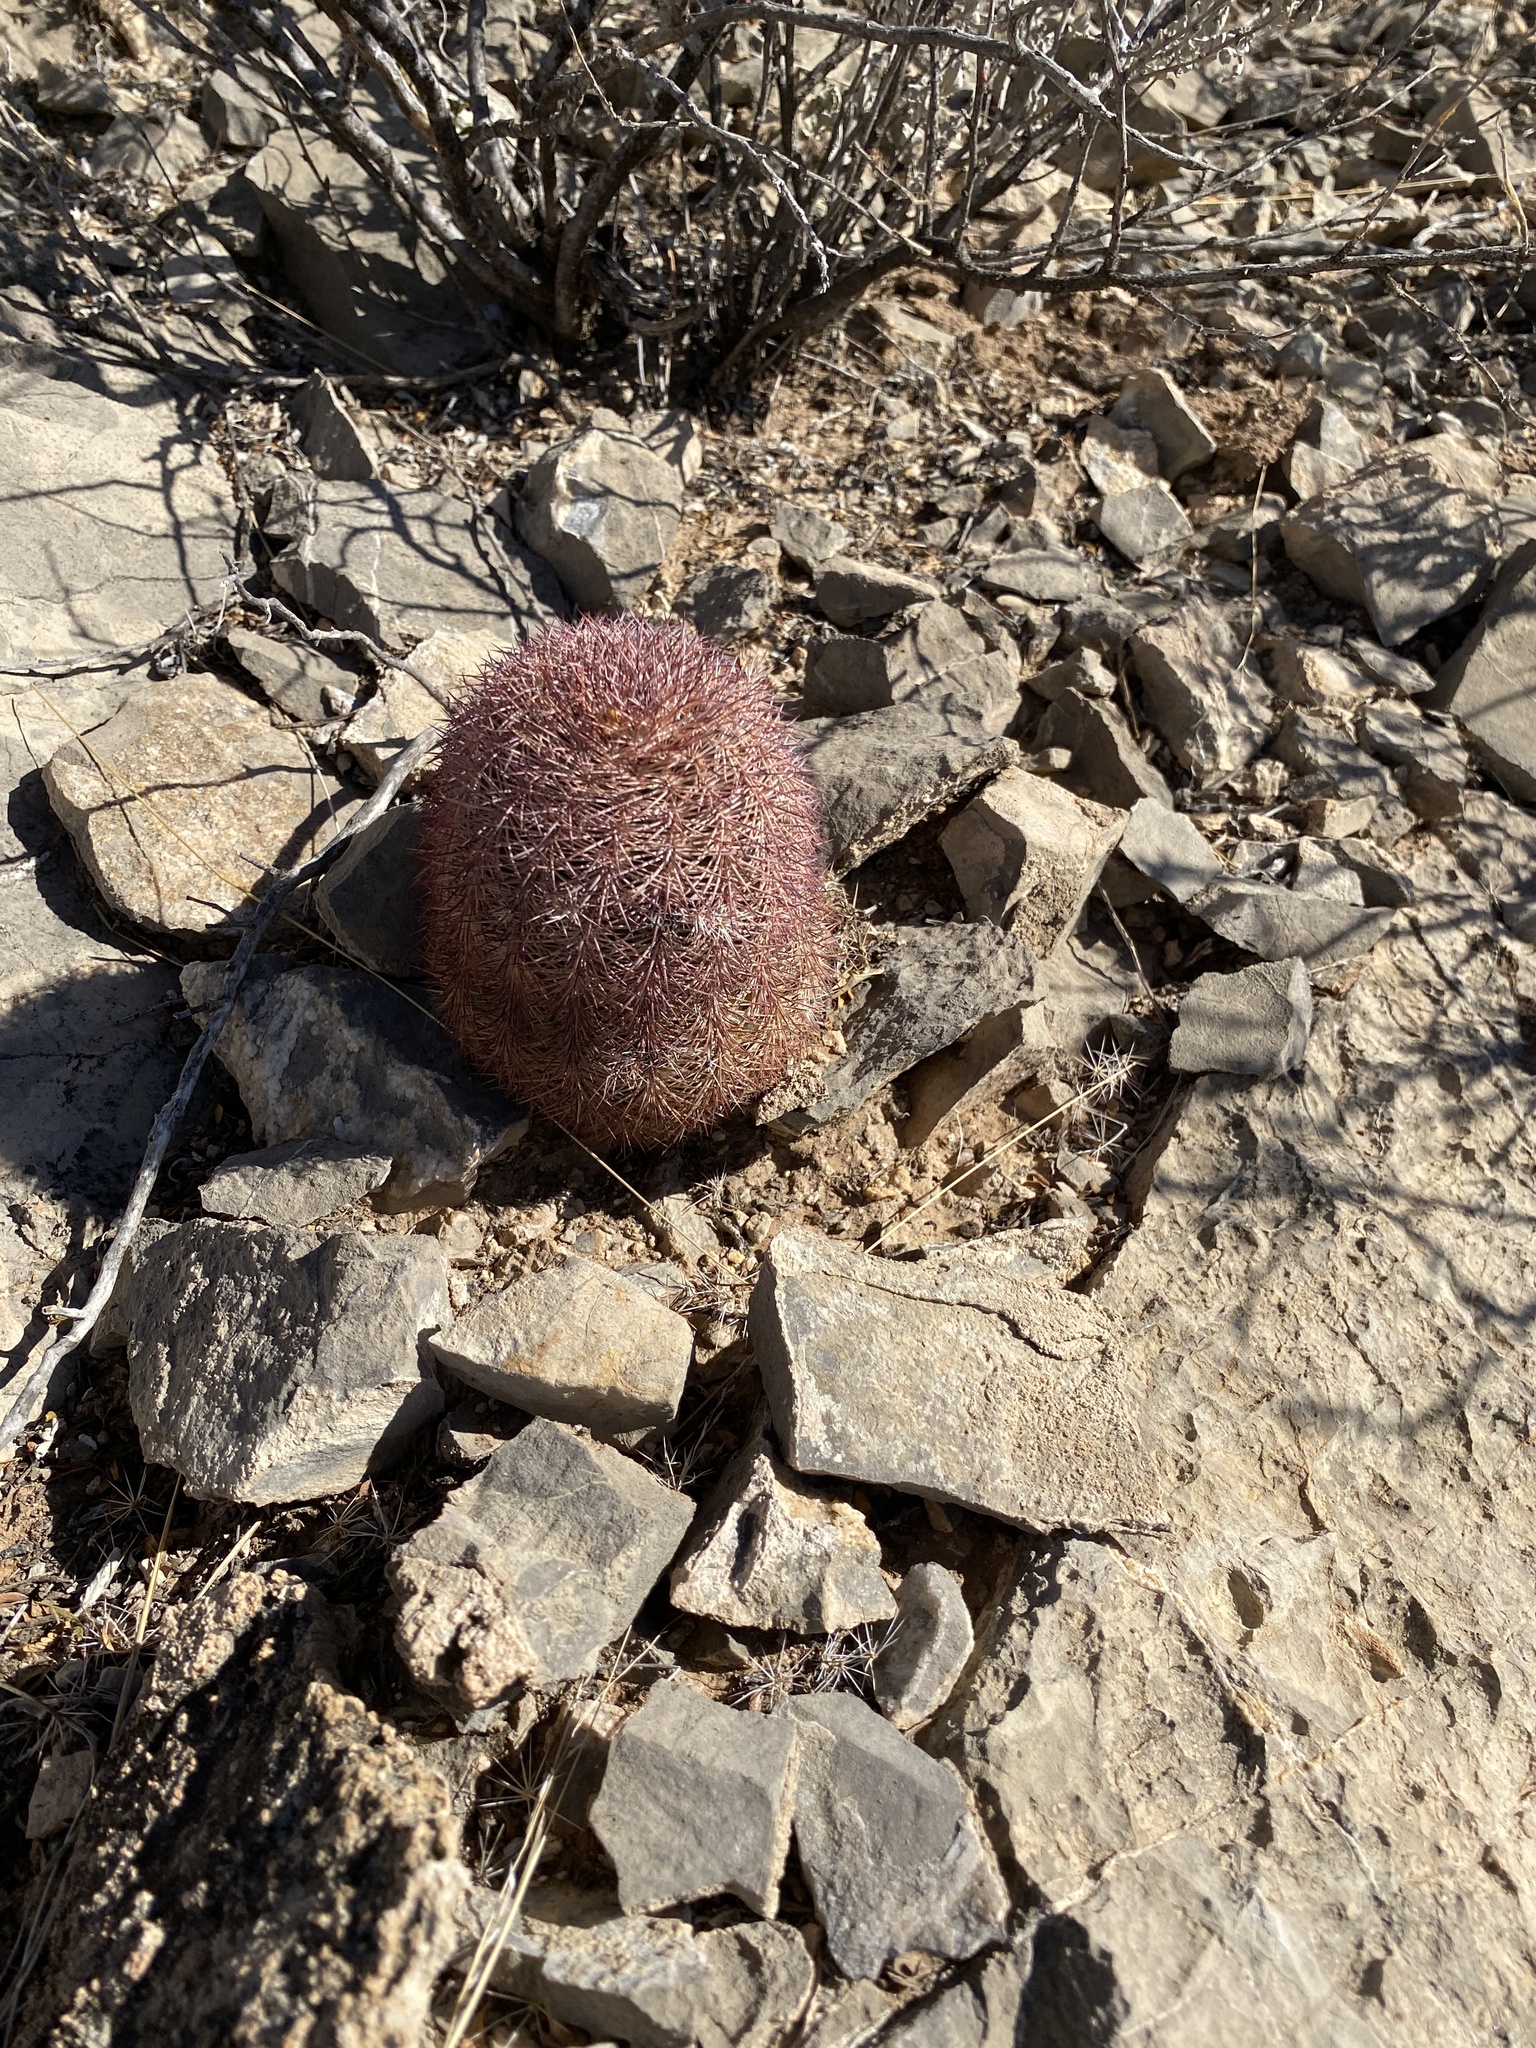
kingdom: Plantae
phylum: Tracheophyta
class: Magnoliopsida
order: Caryophyllales
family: Cactaceae
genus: Echinocereus
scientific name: Echinocereus dasyacanthus
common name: Spiny hedgehog cactus
